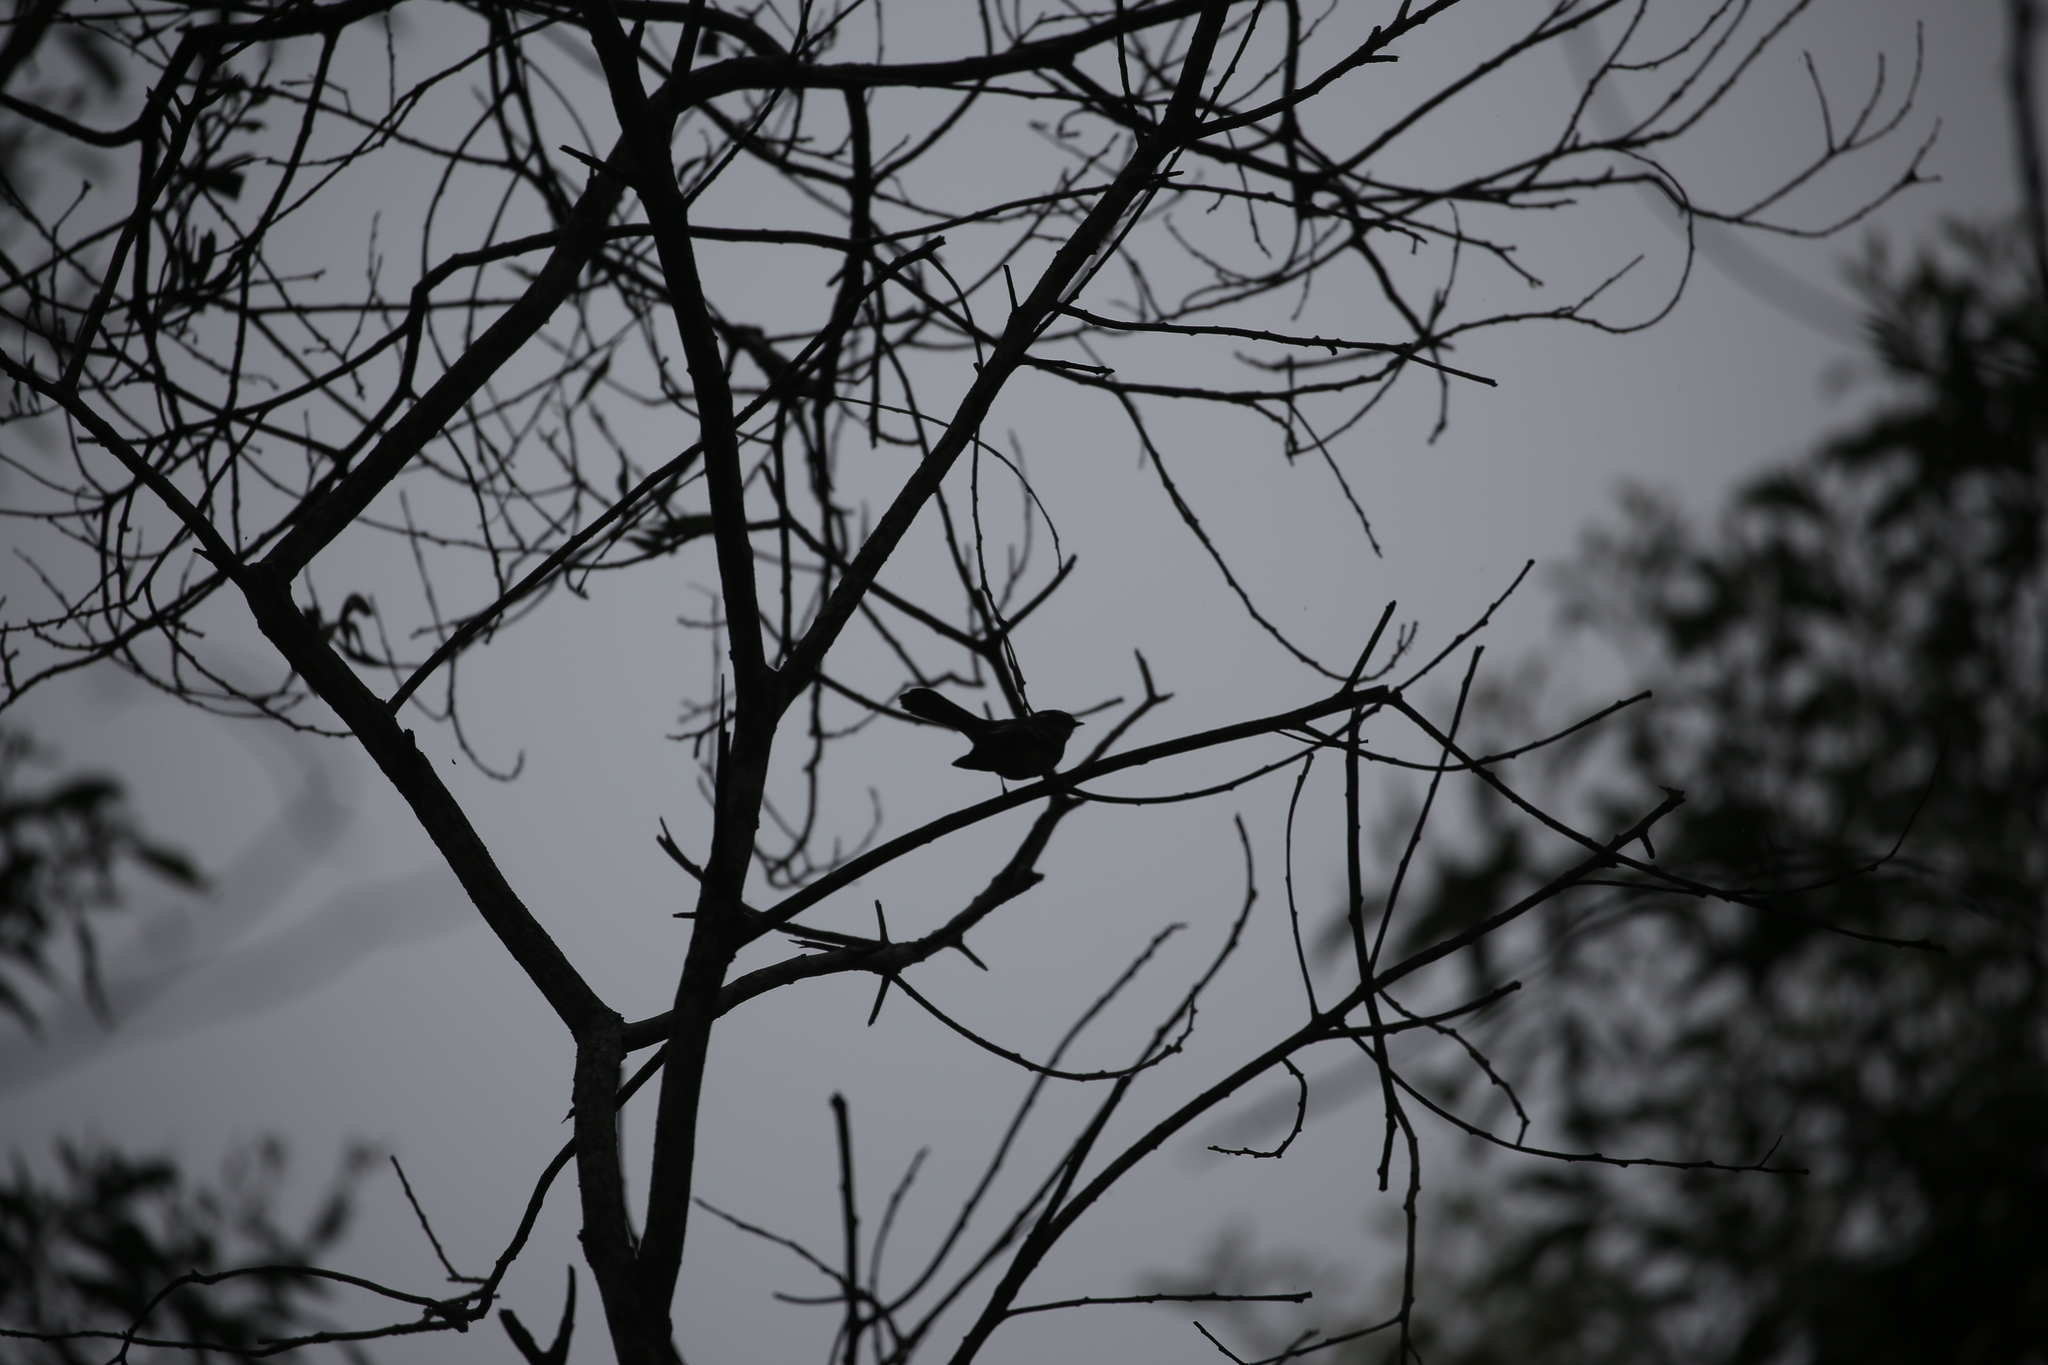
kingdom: Animalia
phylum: Chordata
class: Aves
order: Passeriformes
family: Rhipiduridae
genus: Rhipidura
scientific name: Rhipidura albiscapa
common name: Grey fantail
